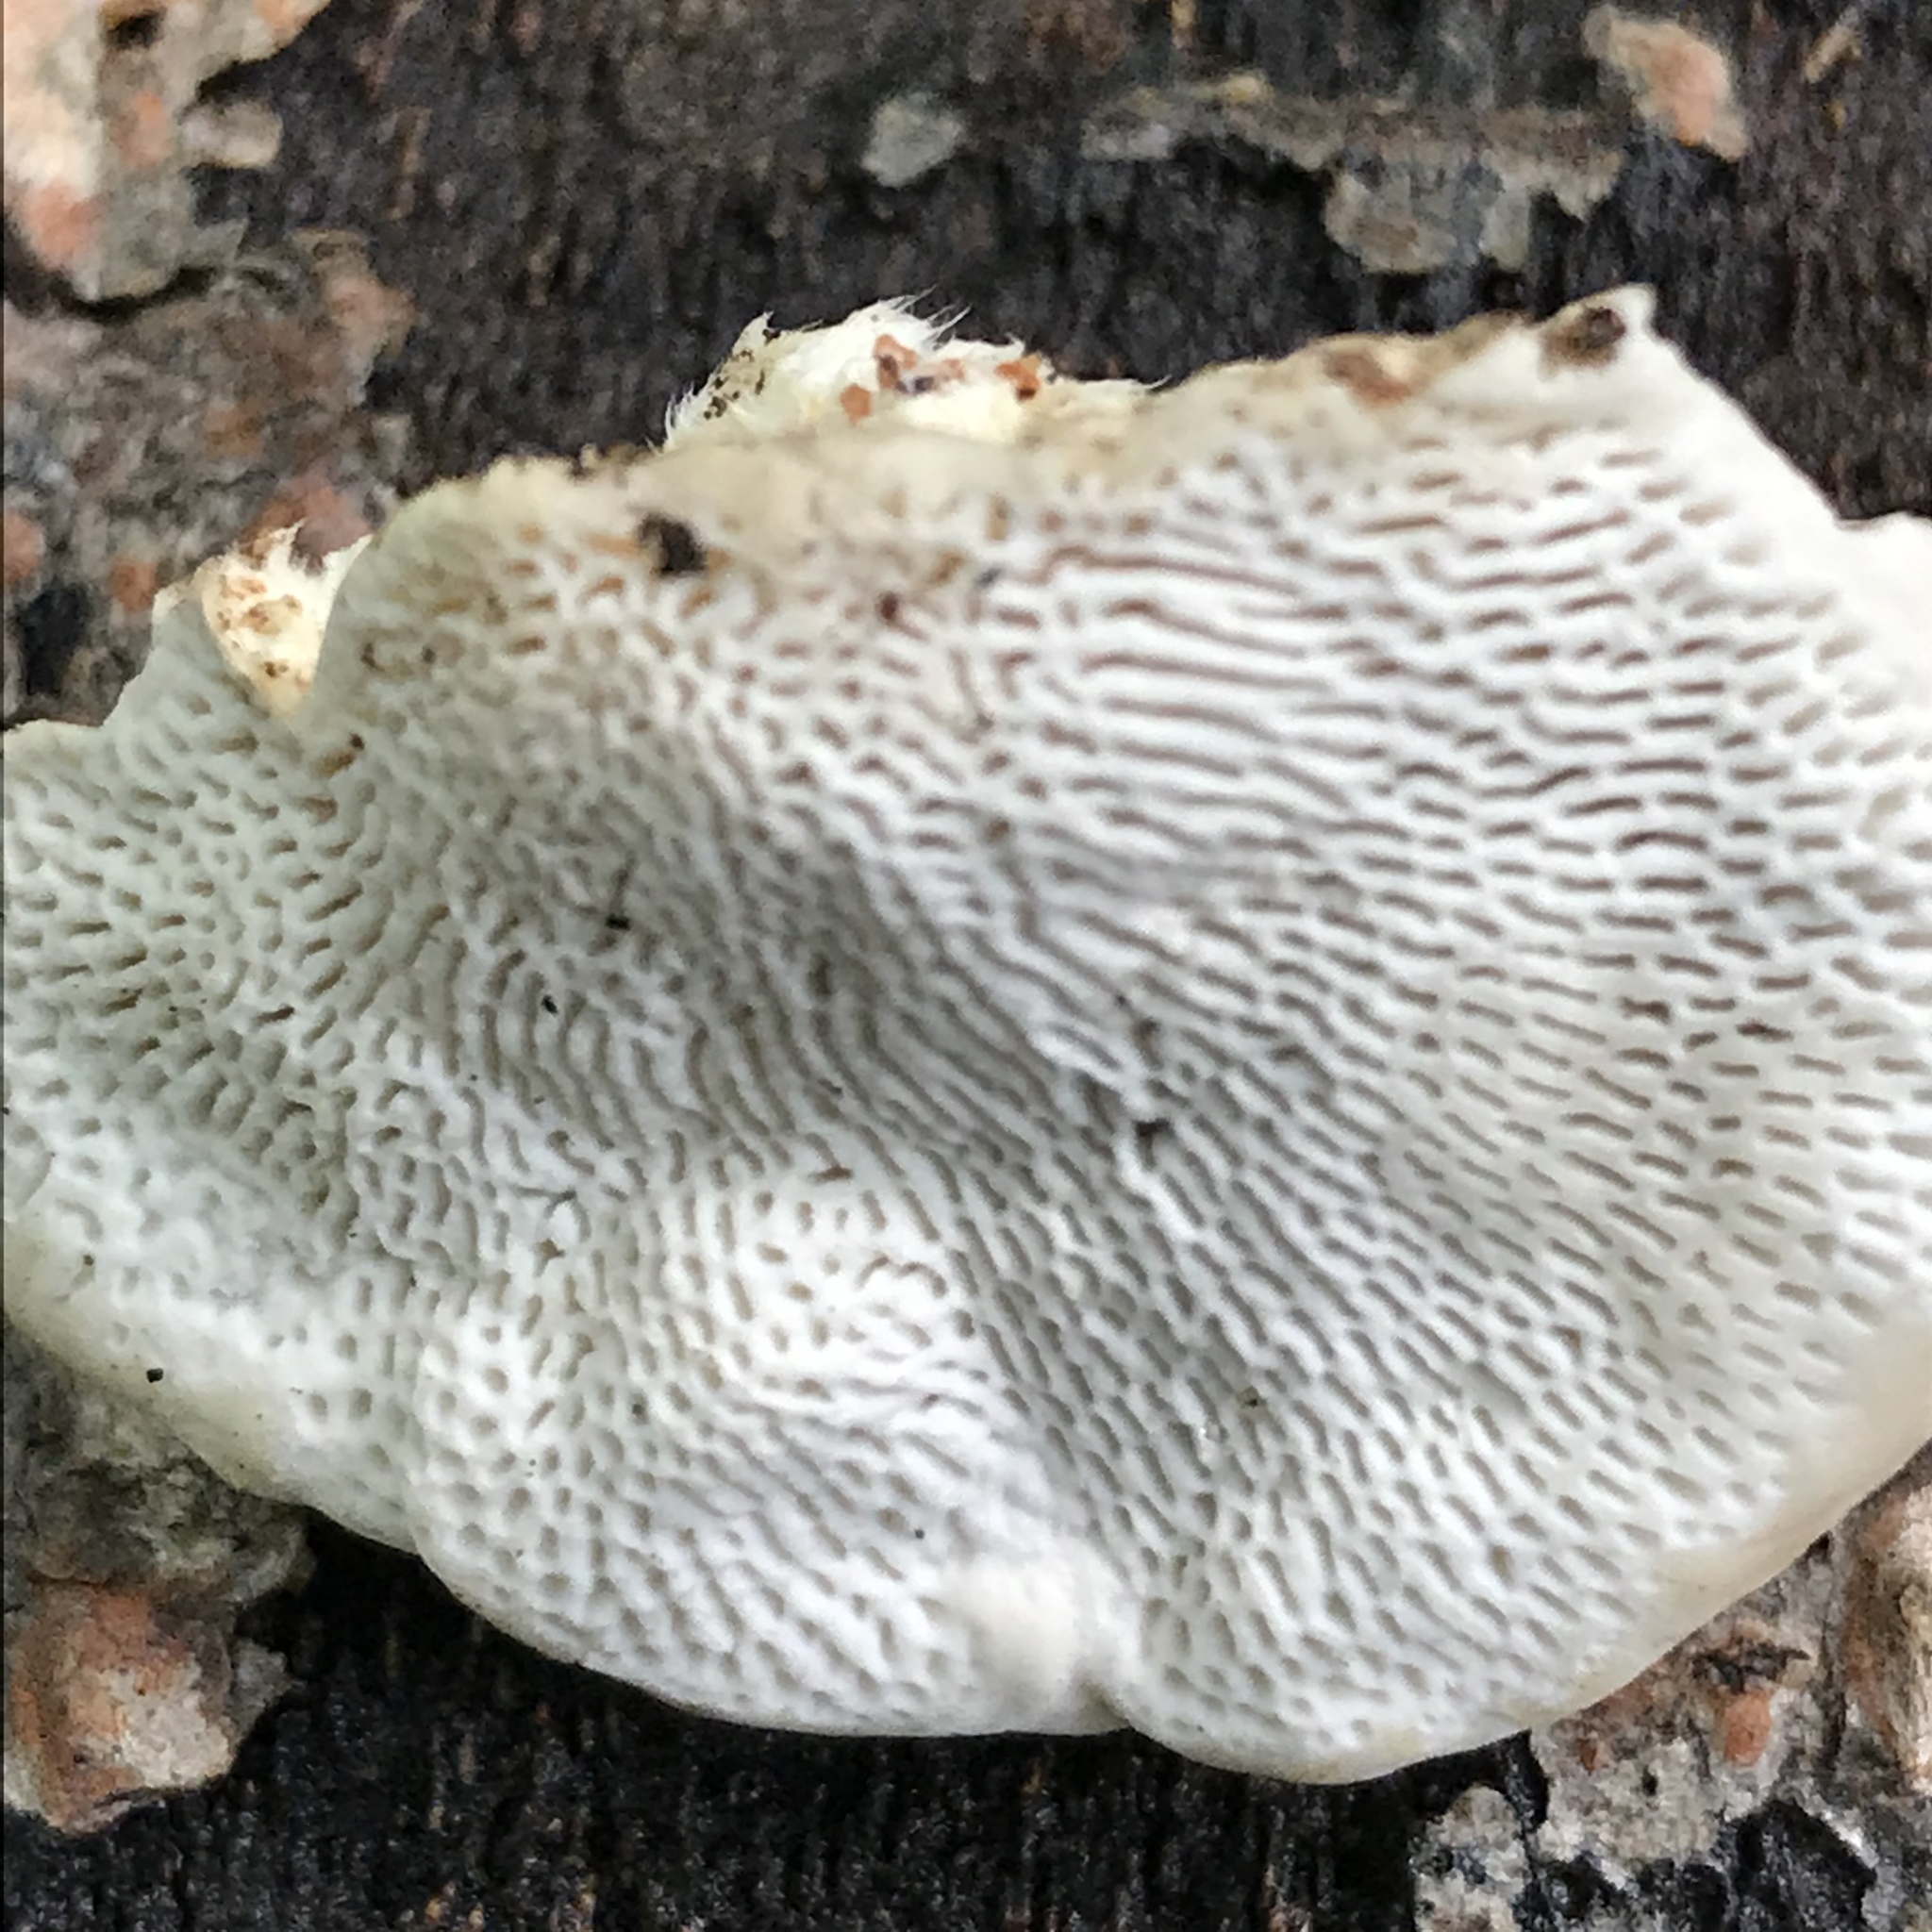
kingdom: Fungi
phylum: Basidiomycota
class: Agaricomycetes
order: Polyporales
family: Polyporaceae
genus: Trametes
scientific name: Trametes gibbosa
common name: Lumpy bracket
